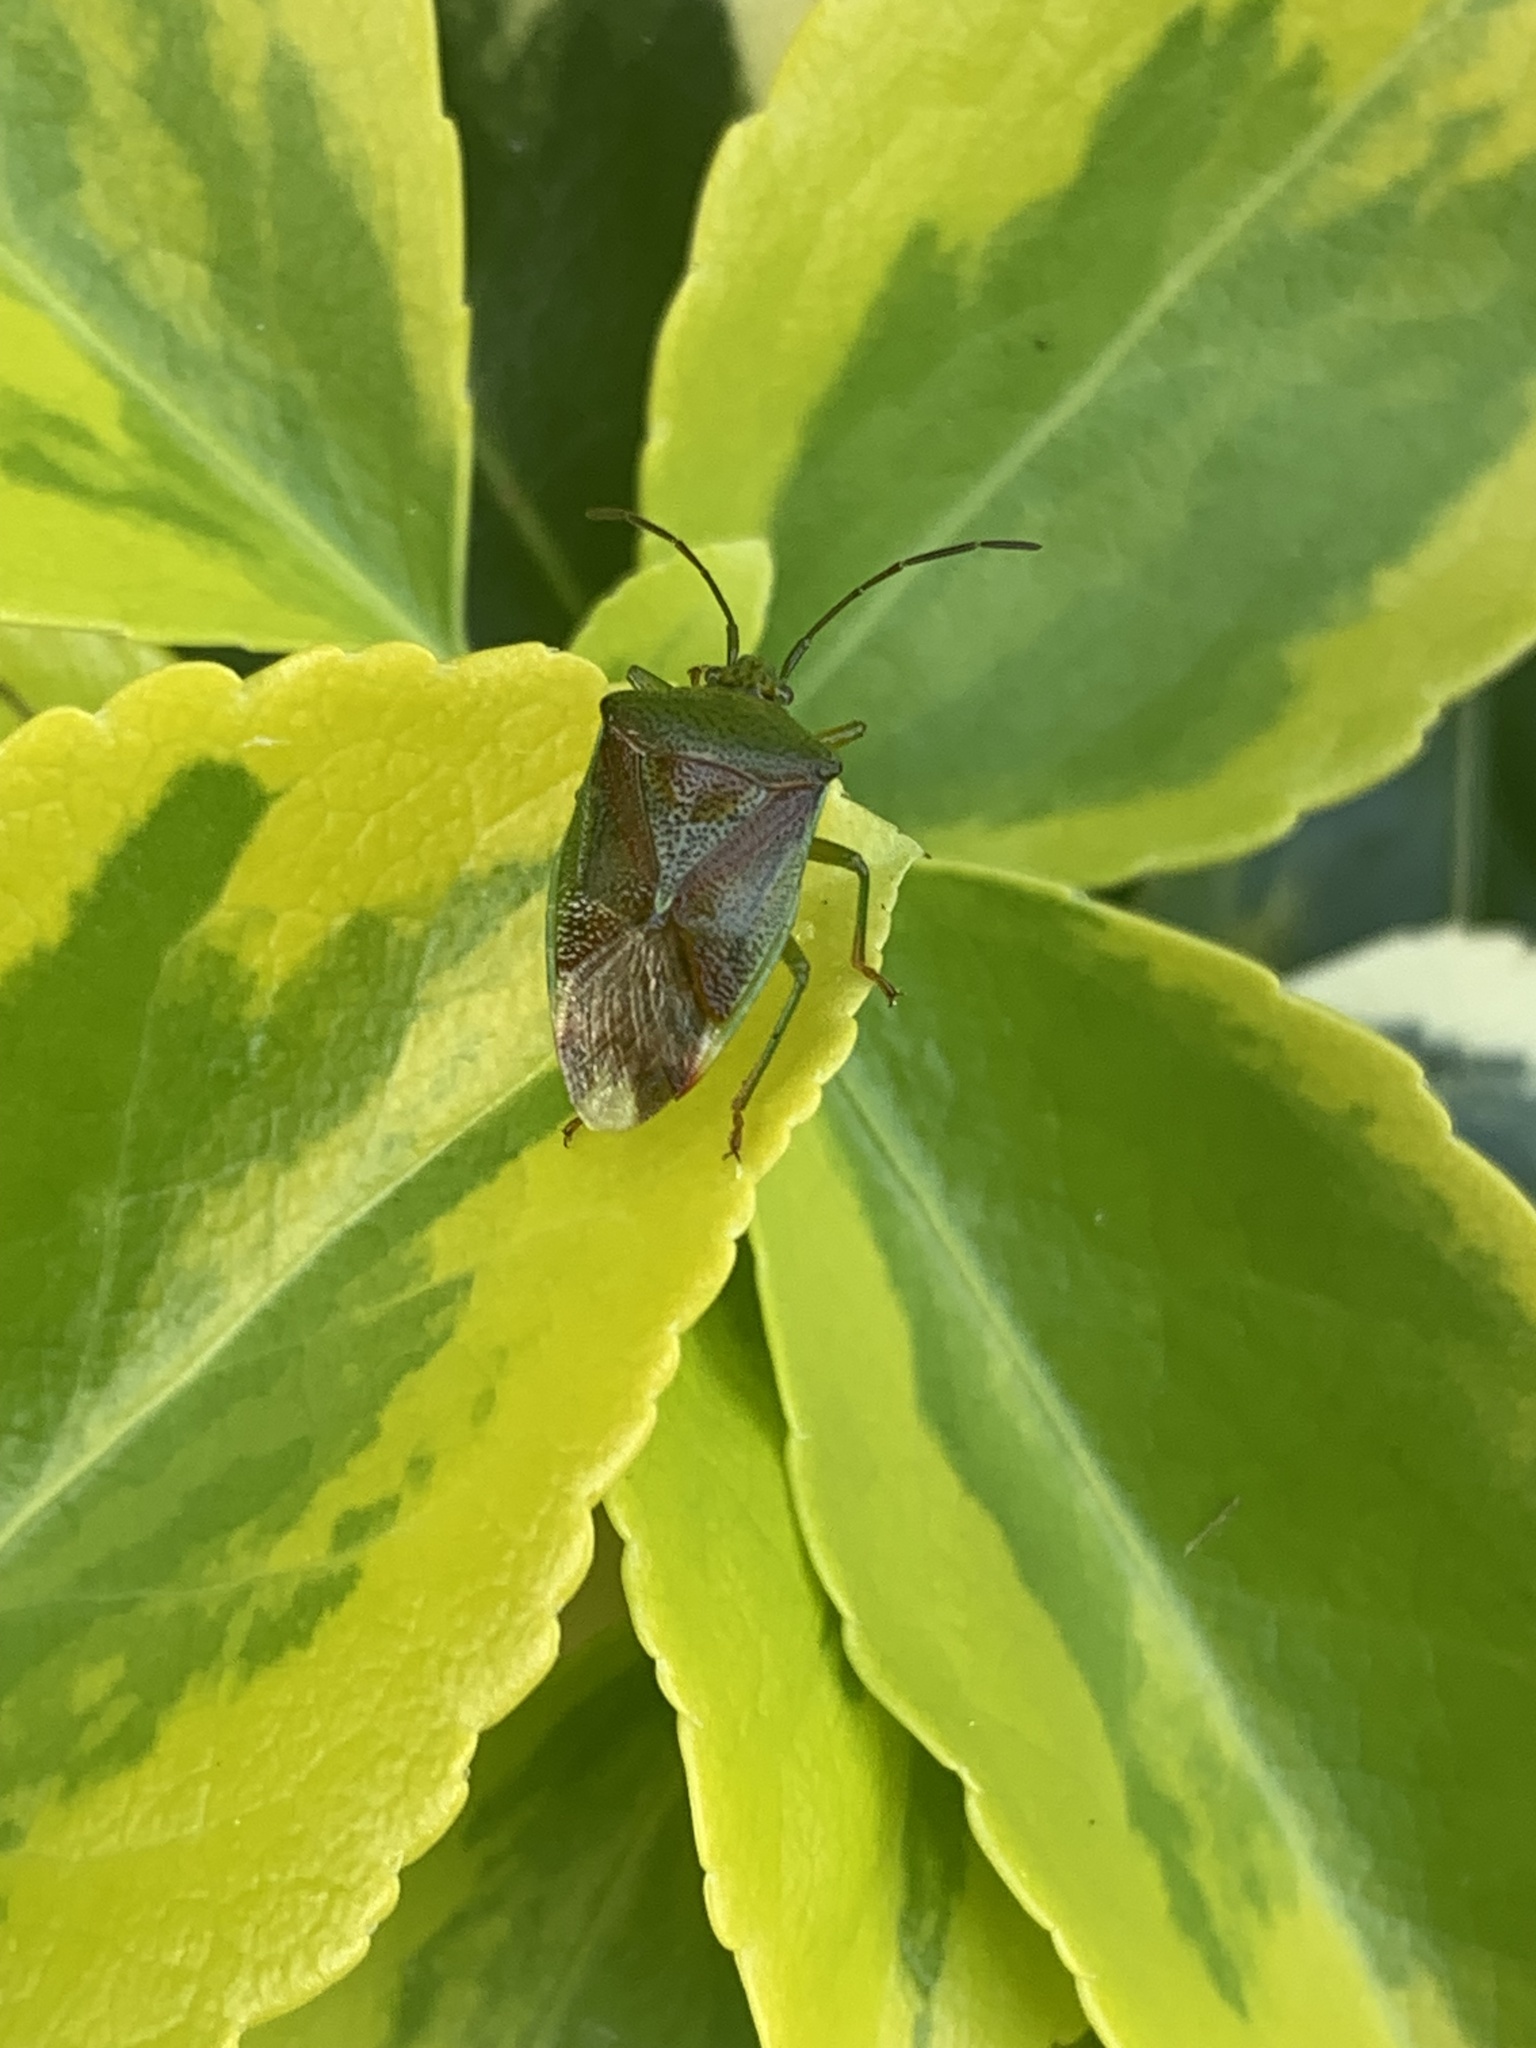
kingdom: Animalia
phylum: Arthropoda
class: Insecta
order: Hemiptera
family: Acanthosomatidae
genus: Elasmostethus
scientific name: Elasmostethus interstinctus
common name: Birch shieldbug
